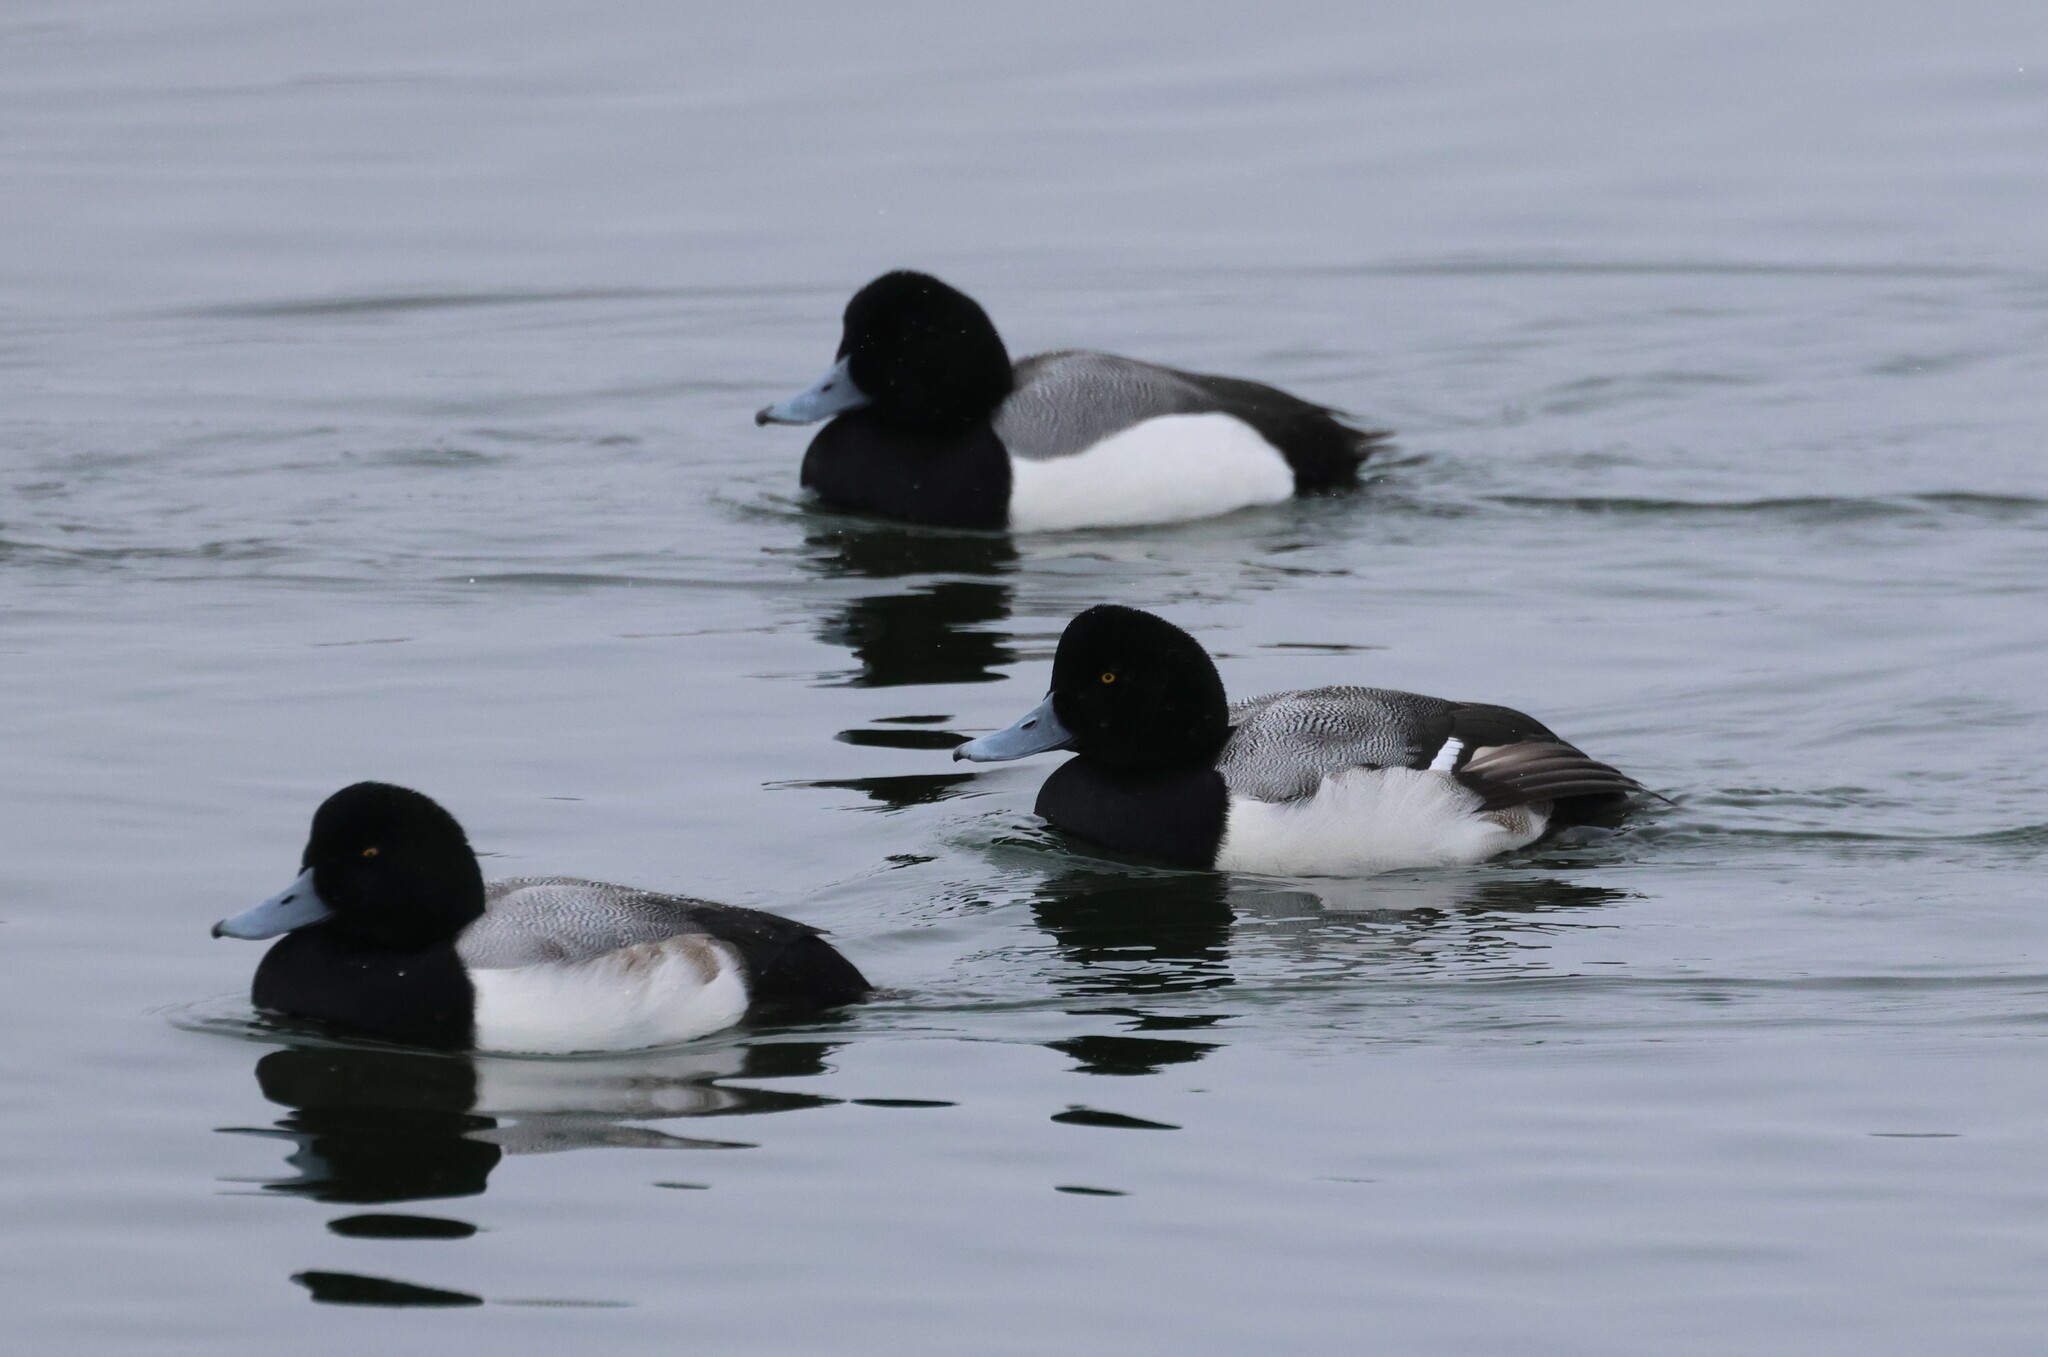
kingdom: Animalia
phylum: Chordata
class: Aves
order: Anseriformes
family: Anatidae
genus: Aythya
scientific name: Aythya marila
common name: Greater scaup
